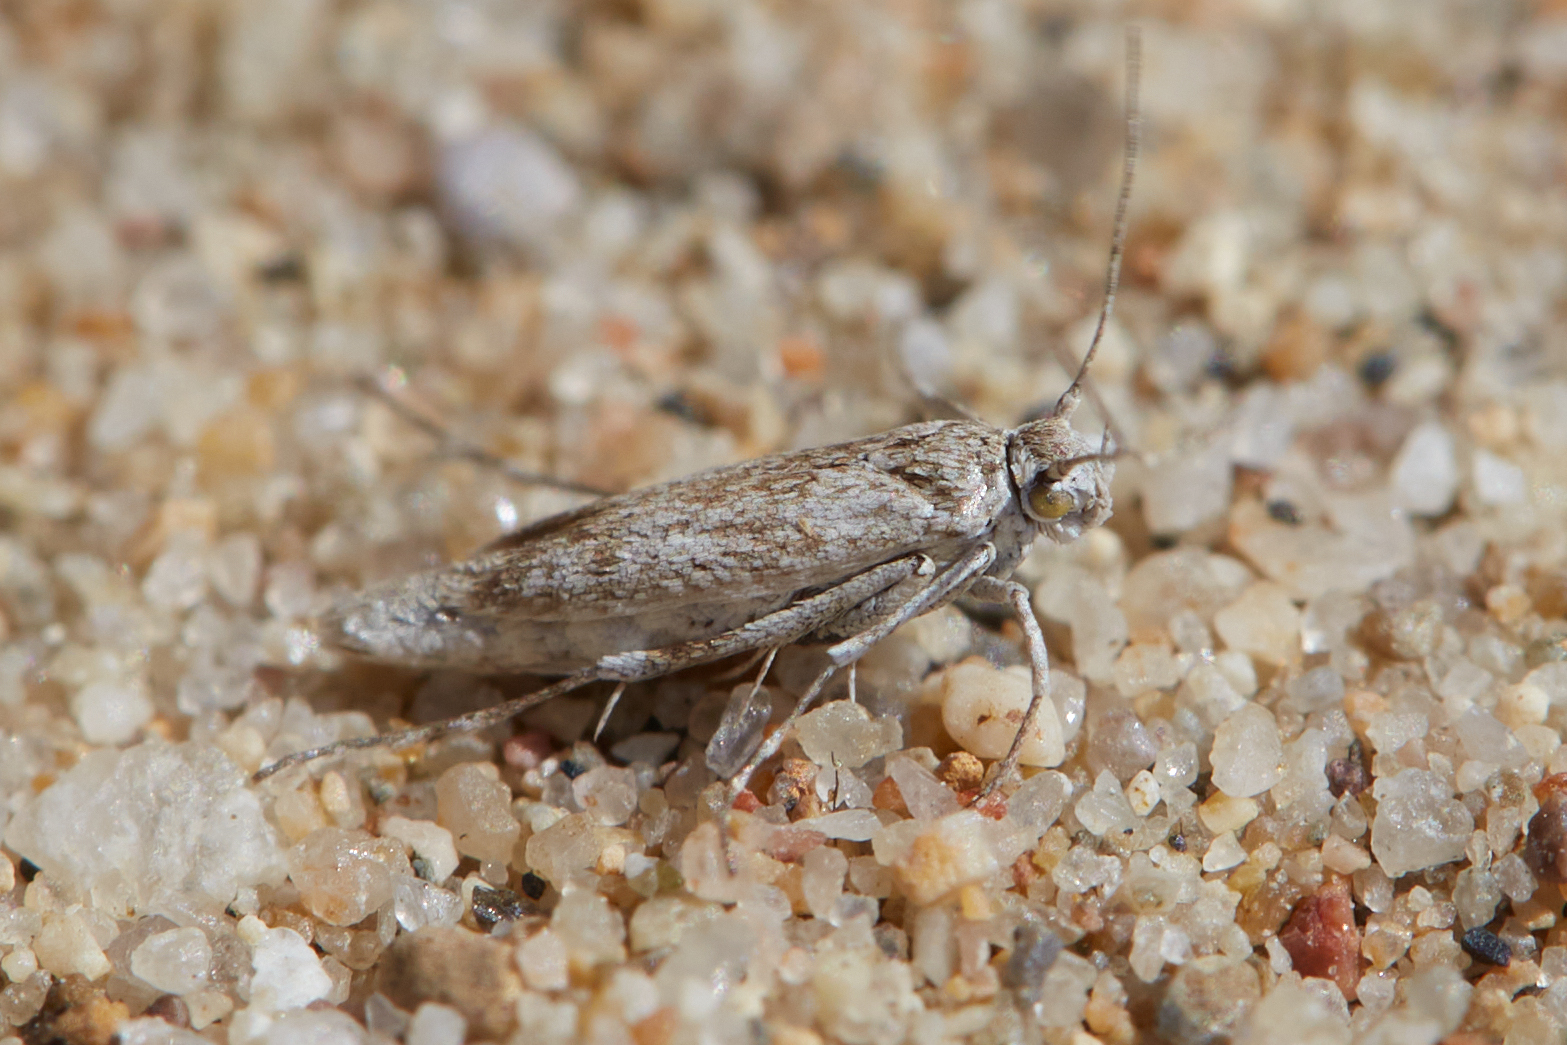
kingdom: Animalia
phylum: Arthropoda
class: Insecta
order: Lepidoptera
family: Scythrididae
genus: Areniscythris
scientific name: Areniscythris brachypteris
